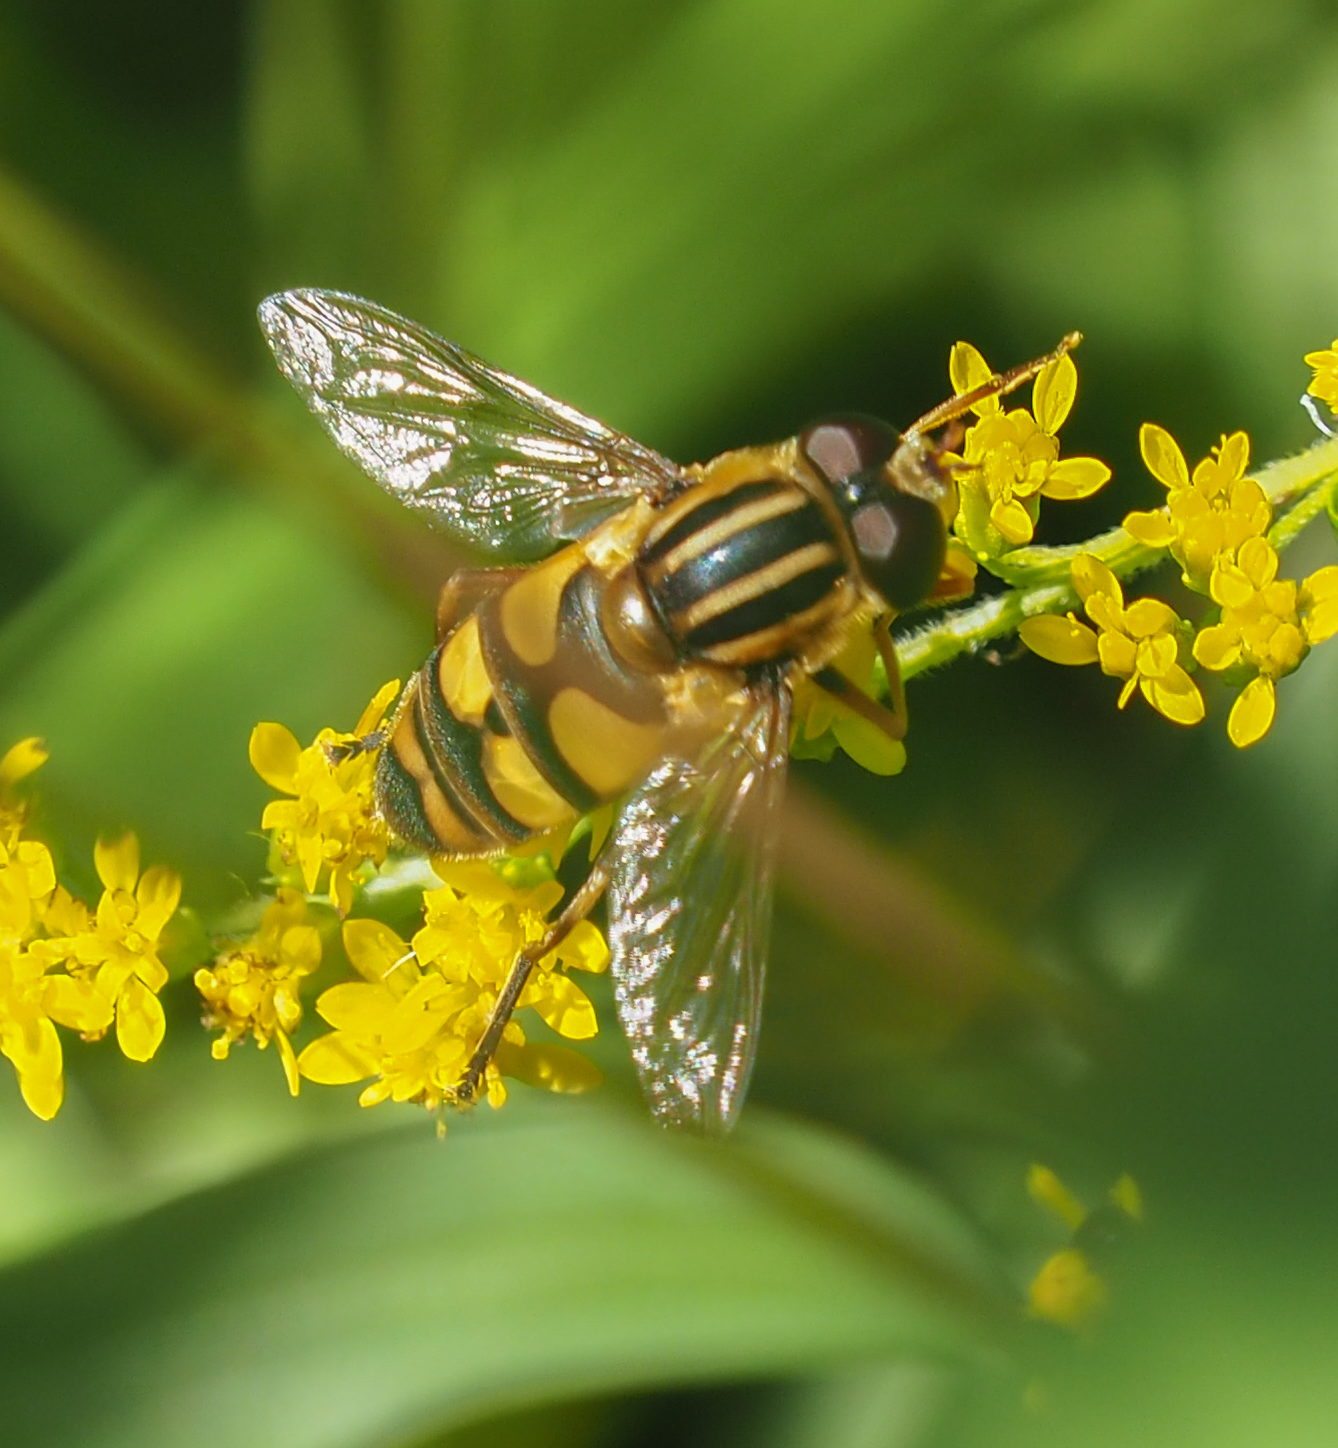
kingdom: Animalia
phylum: Arthropoda
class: Insecta
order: Diptera
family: Syrphidae
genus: Helophilus
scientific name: Helophilus fasciatus
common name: Narrow-headed marsh fly
